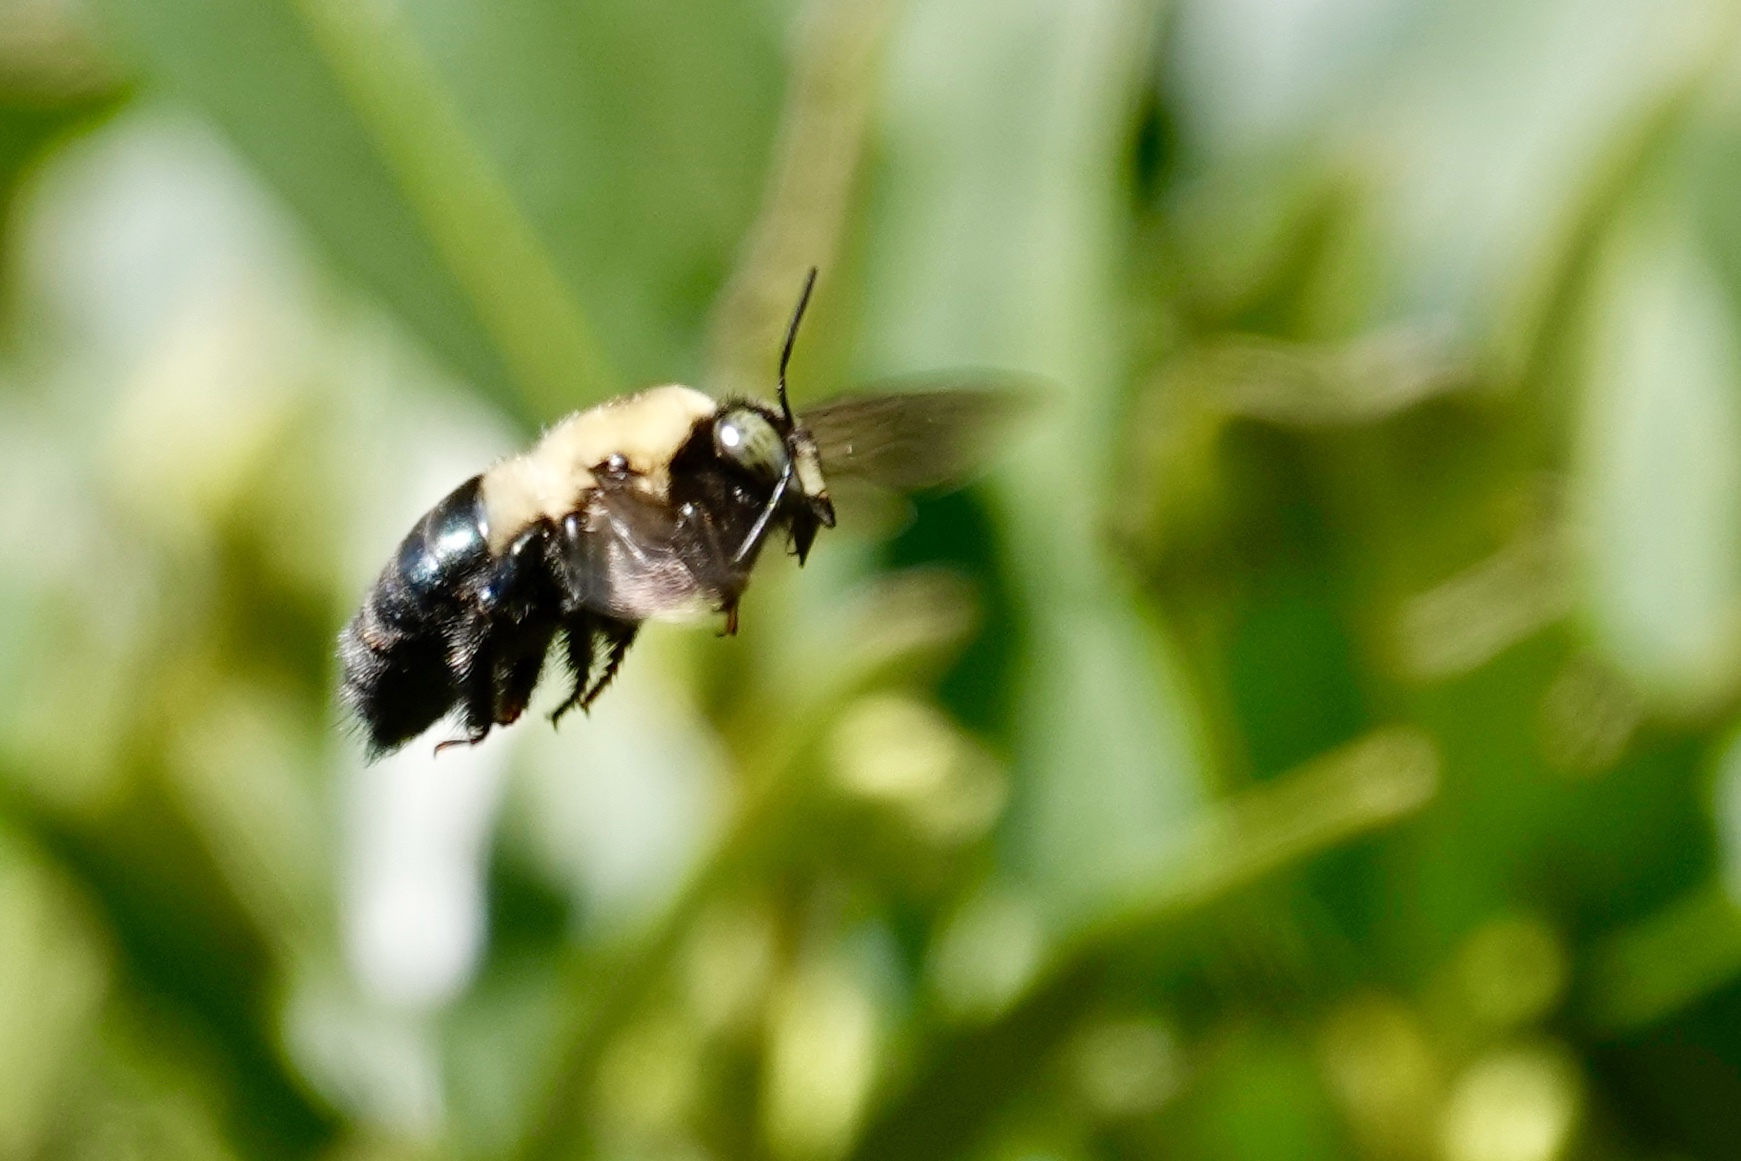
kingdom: Animalia
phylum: Arthropoda
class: Insecta
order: Hymenoptera
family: Apidae
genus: Xylocopa
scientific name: Xylocopa virginica
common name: Carpenter bee
